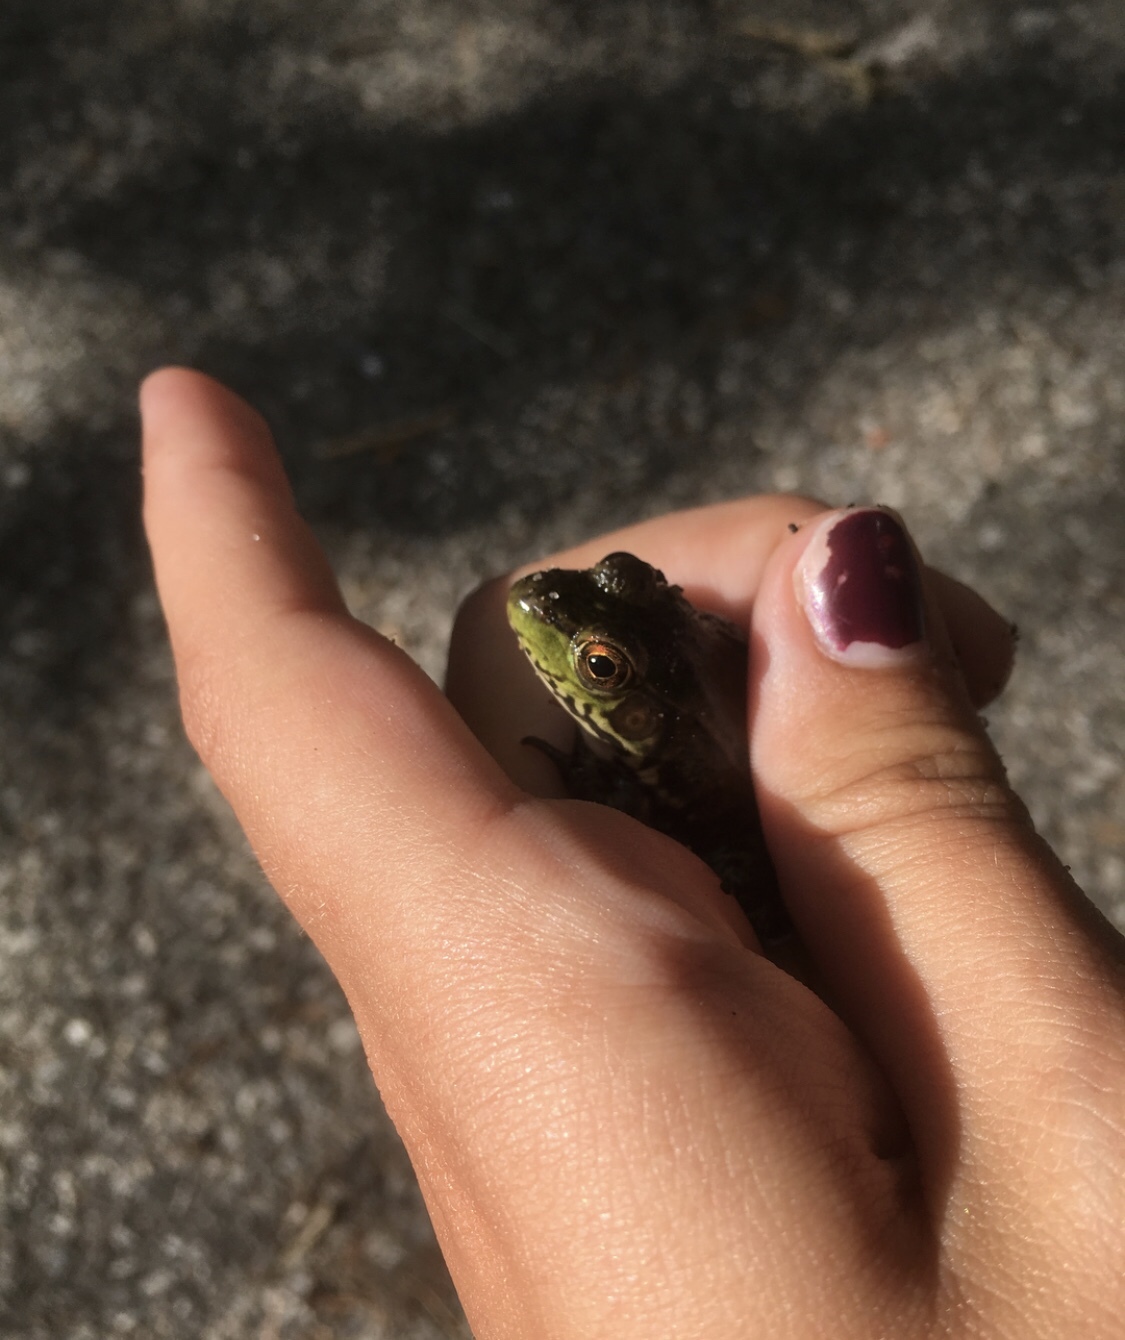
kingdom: Animalia
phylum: Chordata
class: Amphibia
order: Anura
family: Ranidae
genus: Lithobates
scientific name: Lithobates clamitans
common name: Green frog
